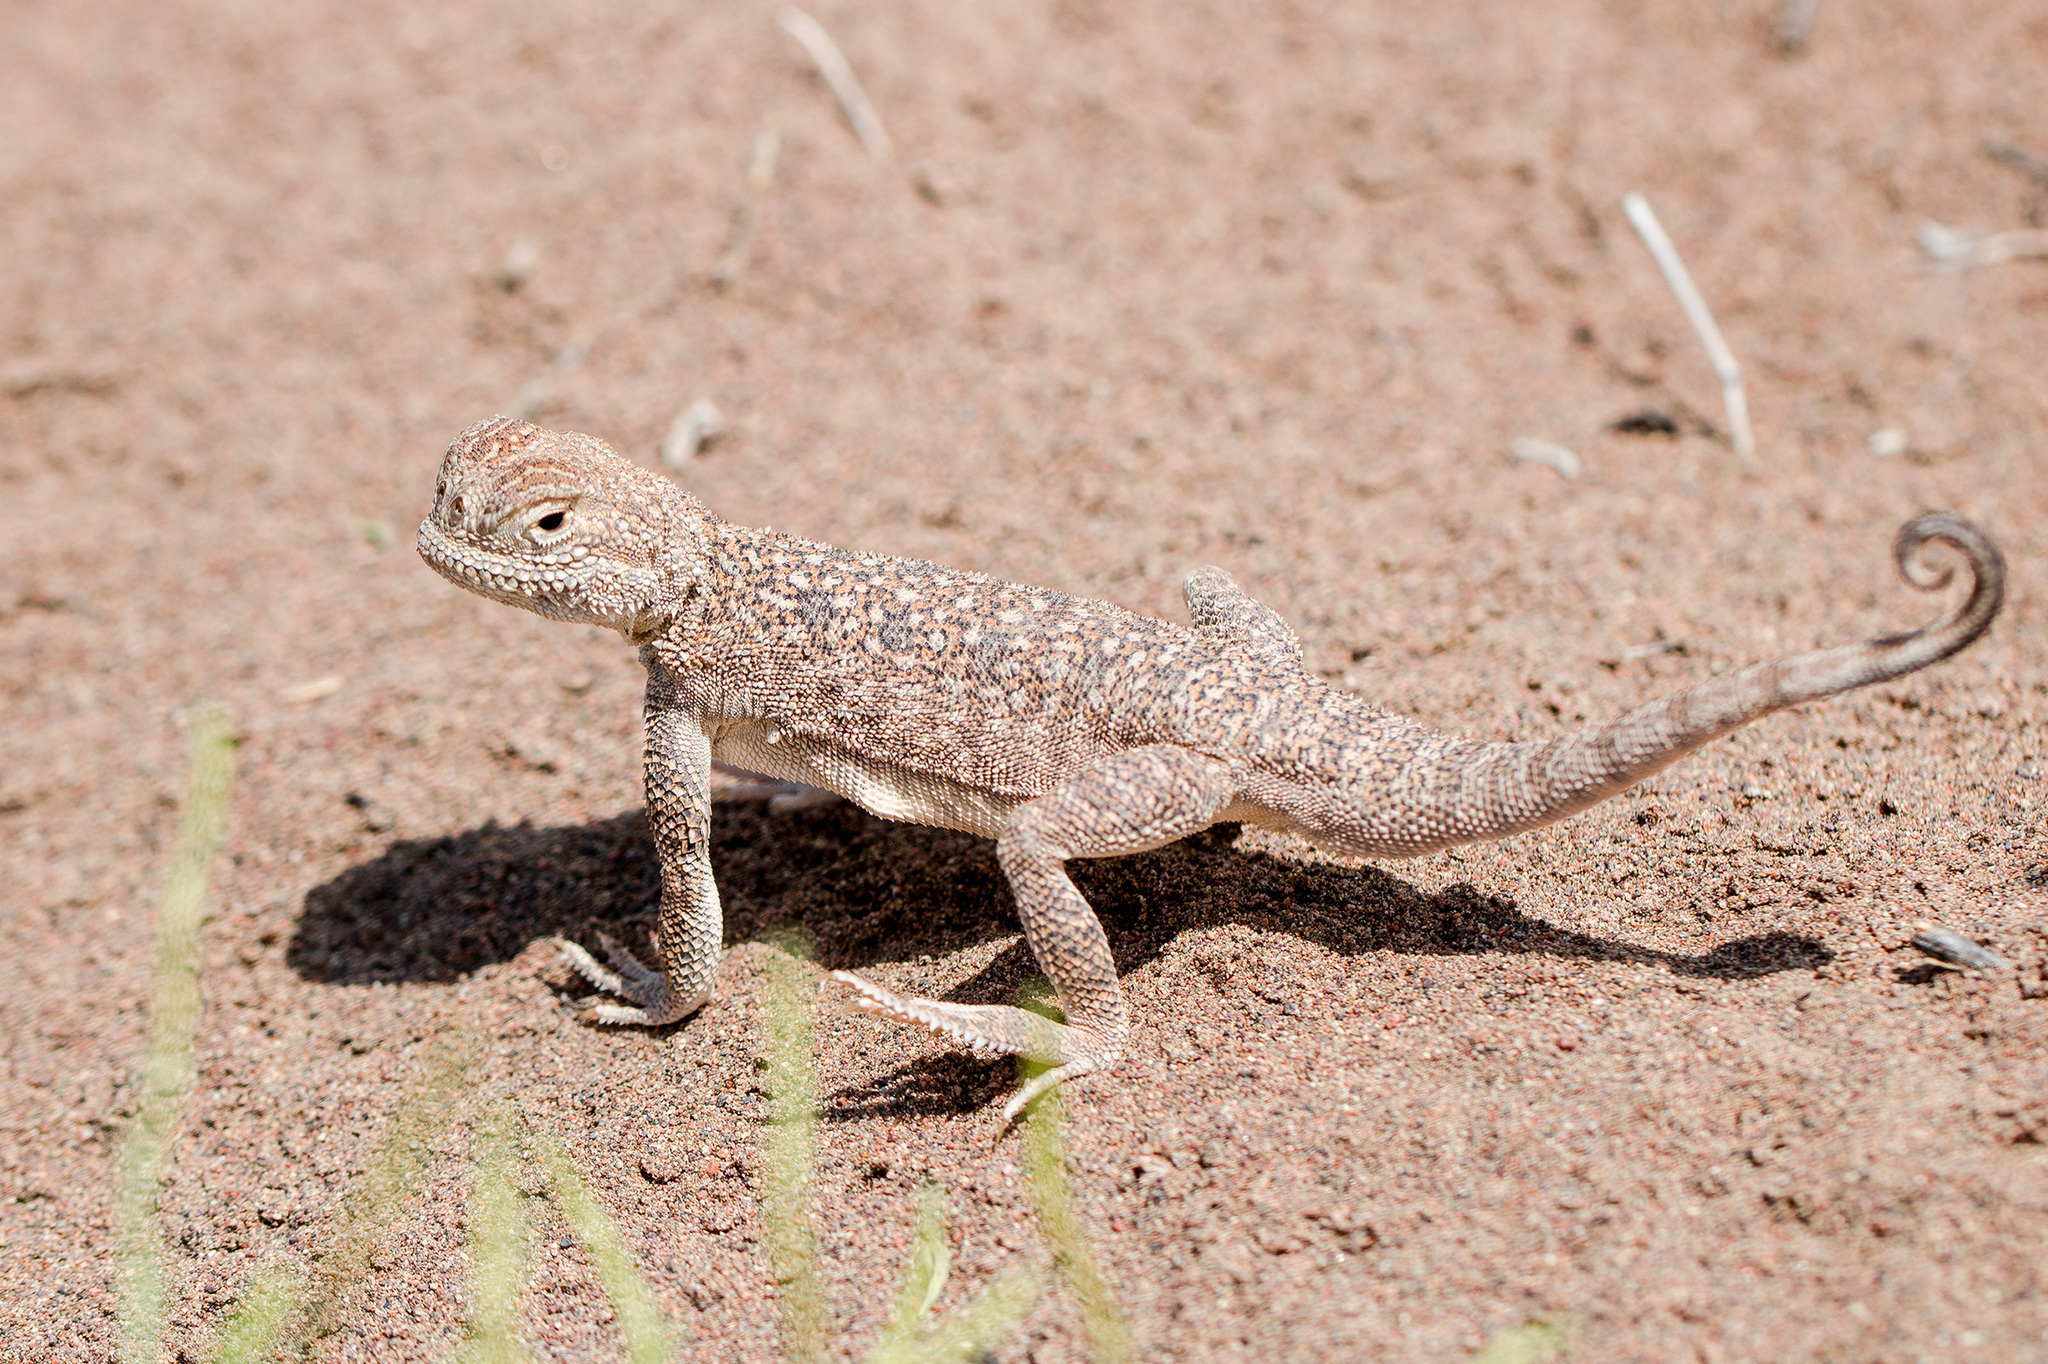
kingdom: Animalia
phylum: Chordata
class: Squamata
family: Agamidae
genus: Phrynocephalus
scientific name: Phrynocephalus mystaceus
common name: Secret toadhead agama
